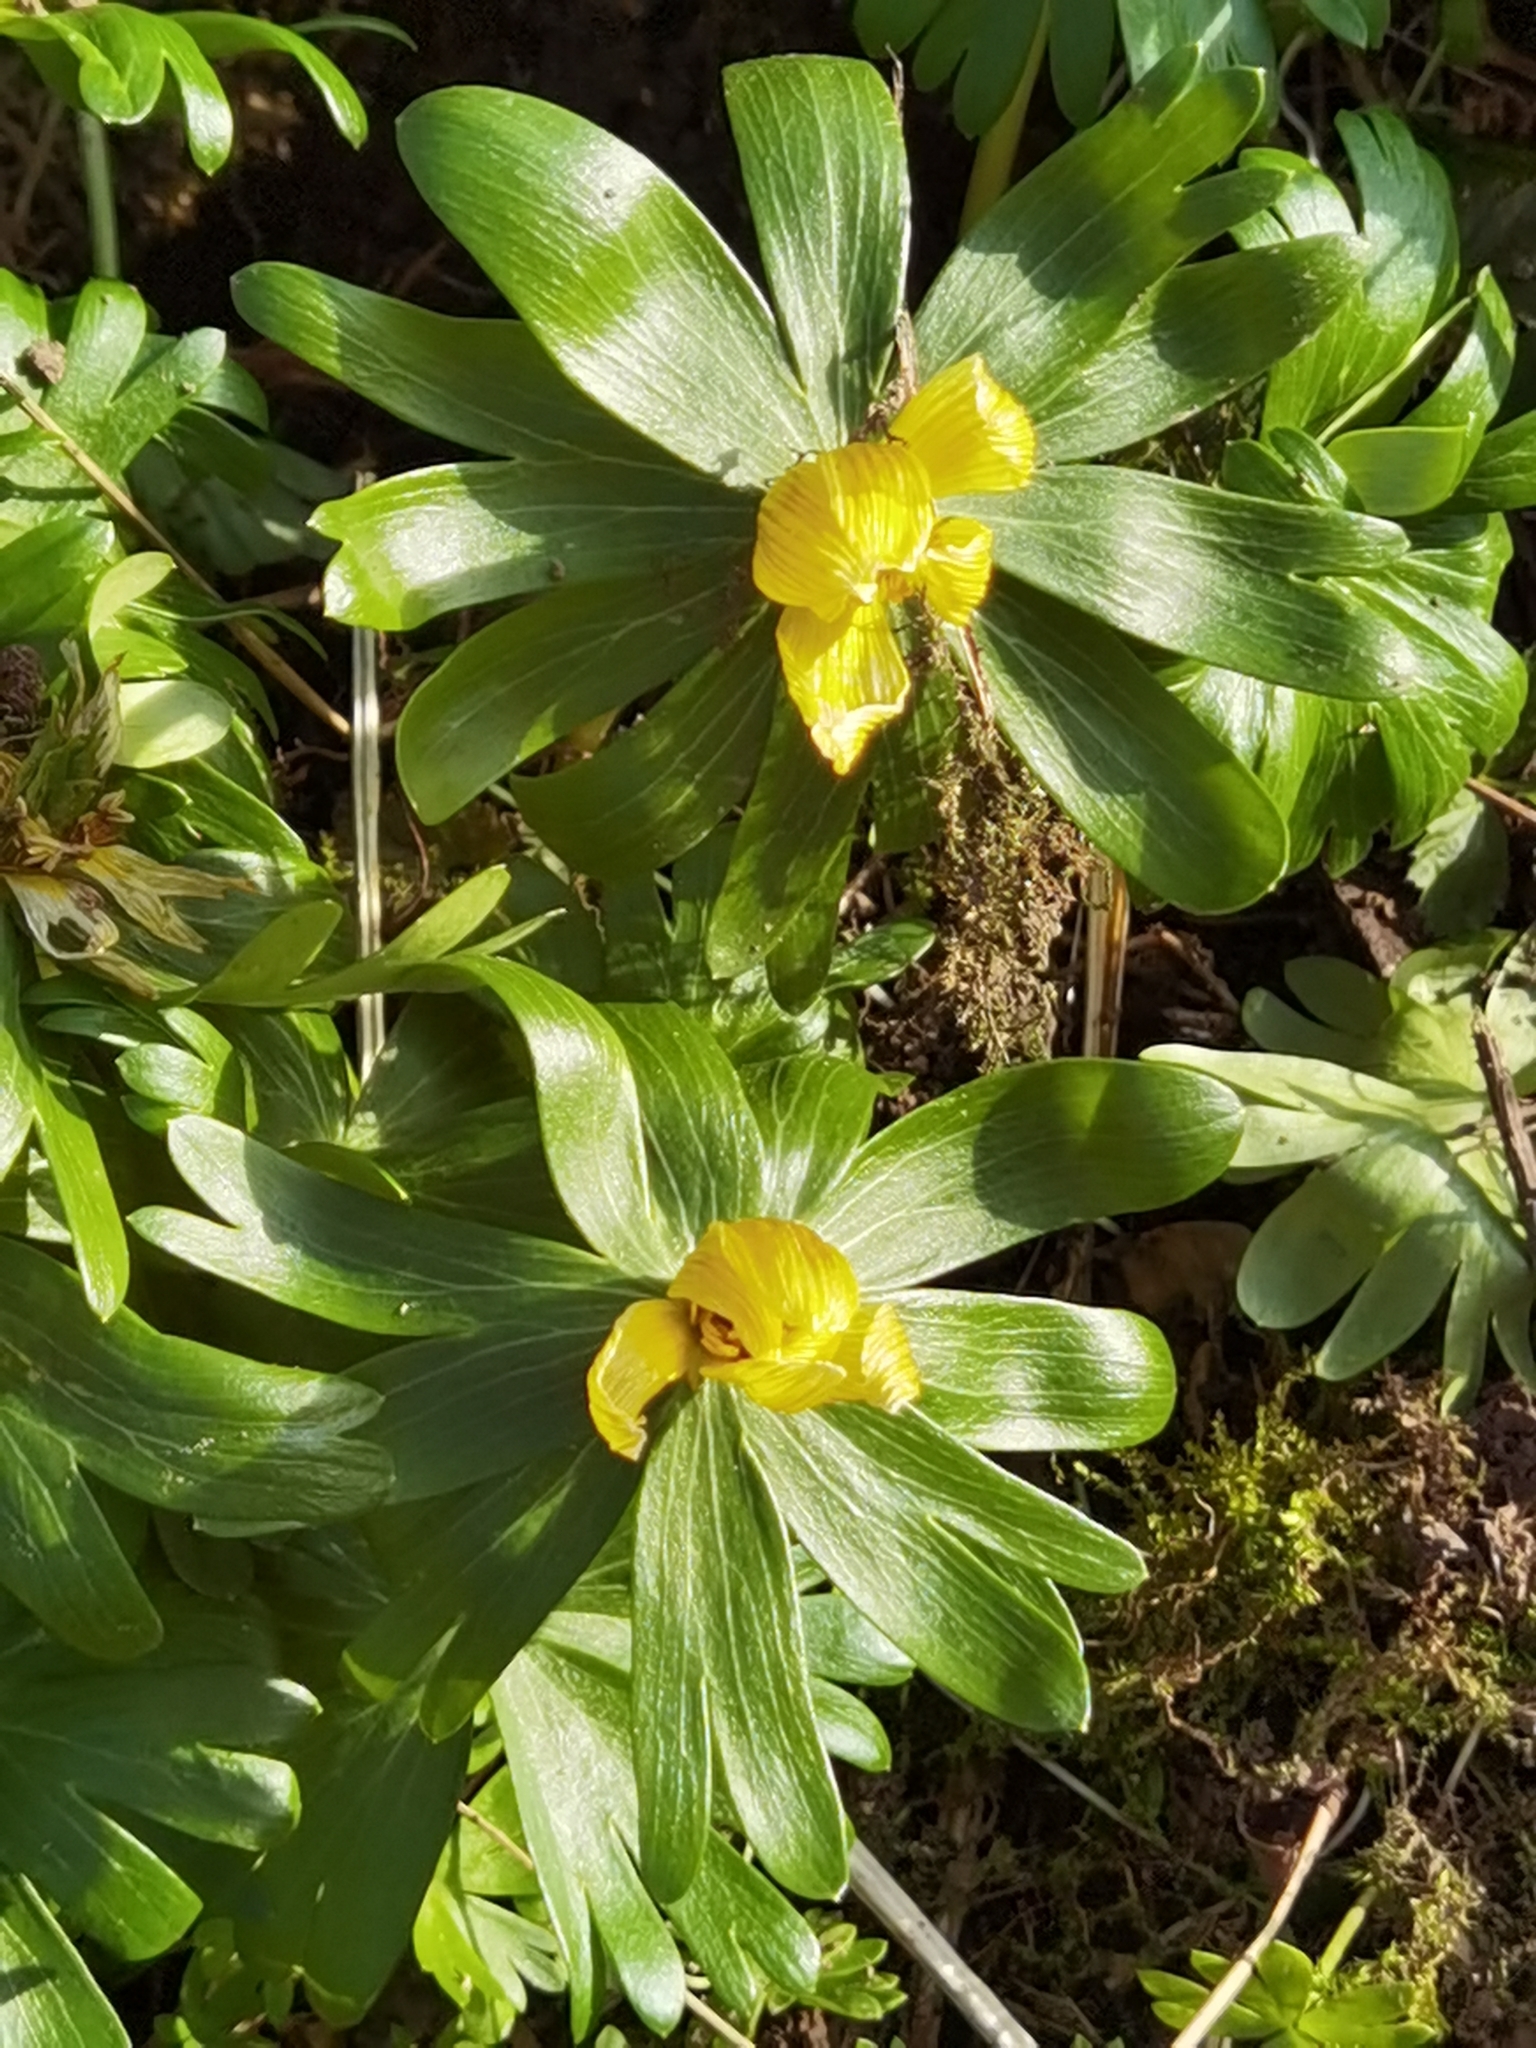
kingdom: Plantae
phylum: Tracheophyta
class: Magnoliopsida
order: Ranunculales
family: Ranunculaceae
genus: Eranthis
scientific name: Eranthis hyemalis
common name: Winter aconite
